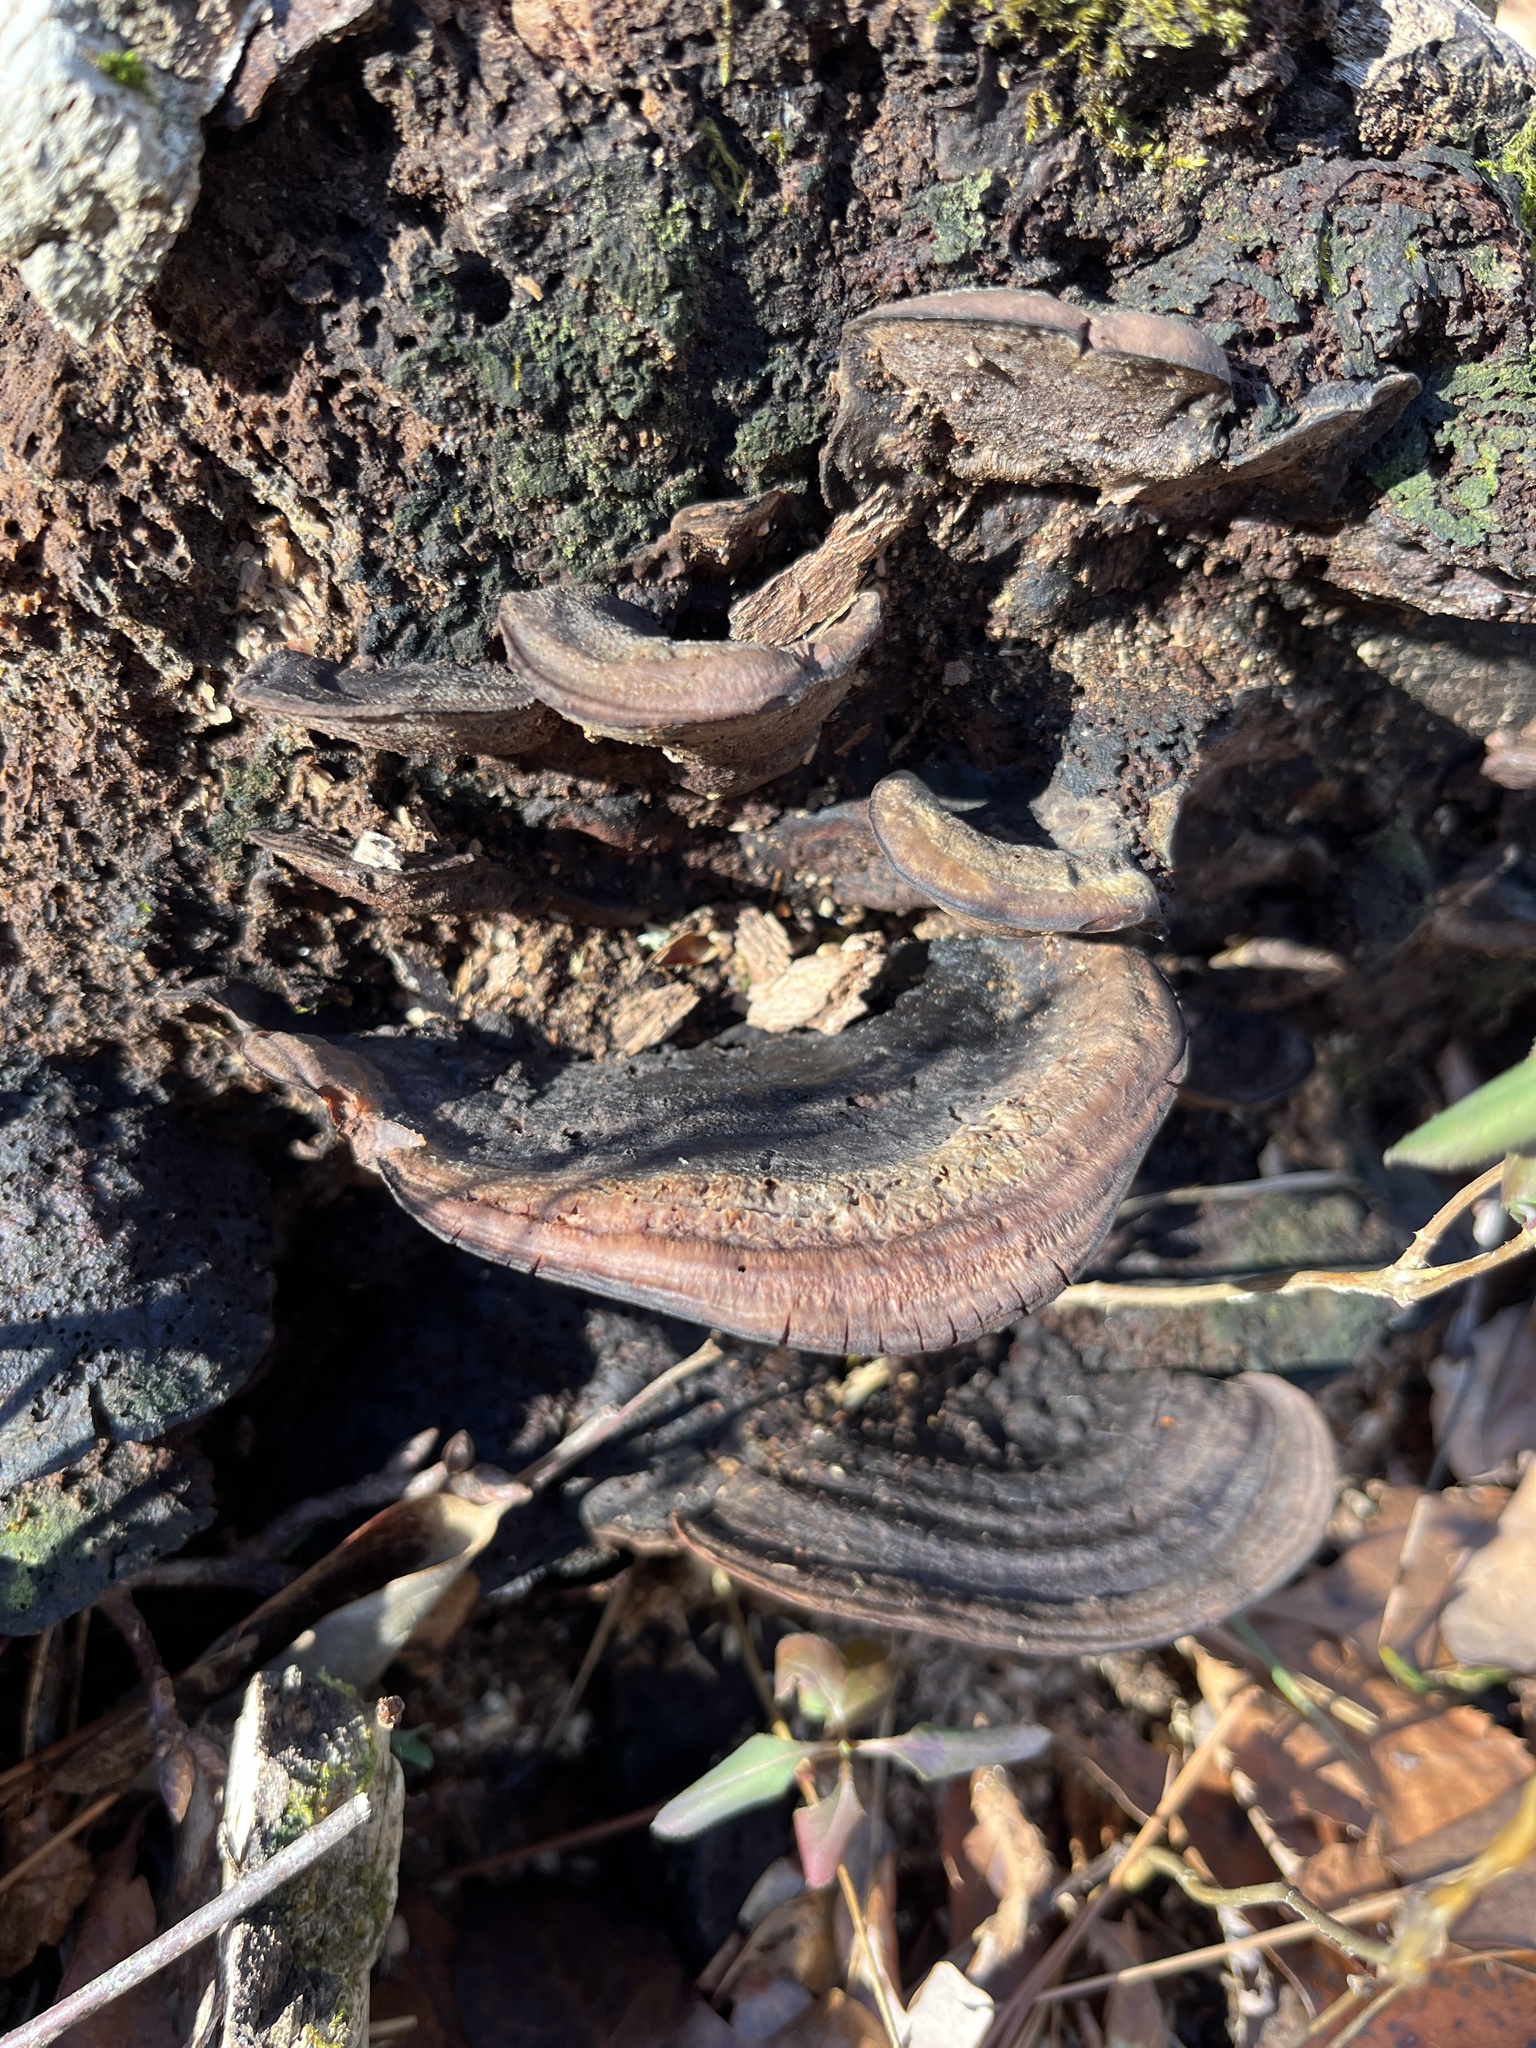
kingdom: Fungi
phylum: Basidiomycota
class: Agaricomycetes
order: Polyporales
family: Steccherinaceae
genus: Nigroporus
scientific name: Nigroporus vinosus
